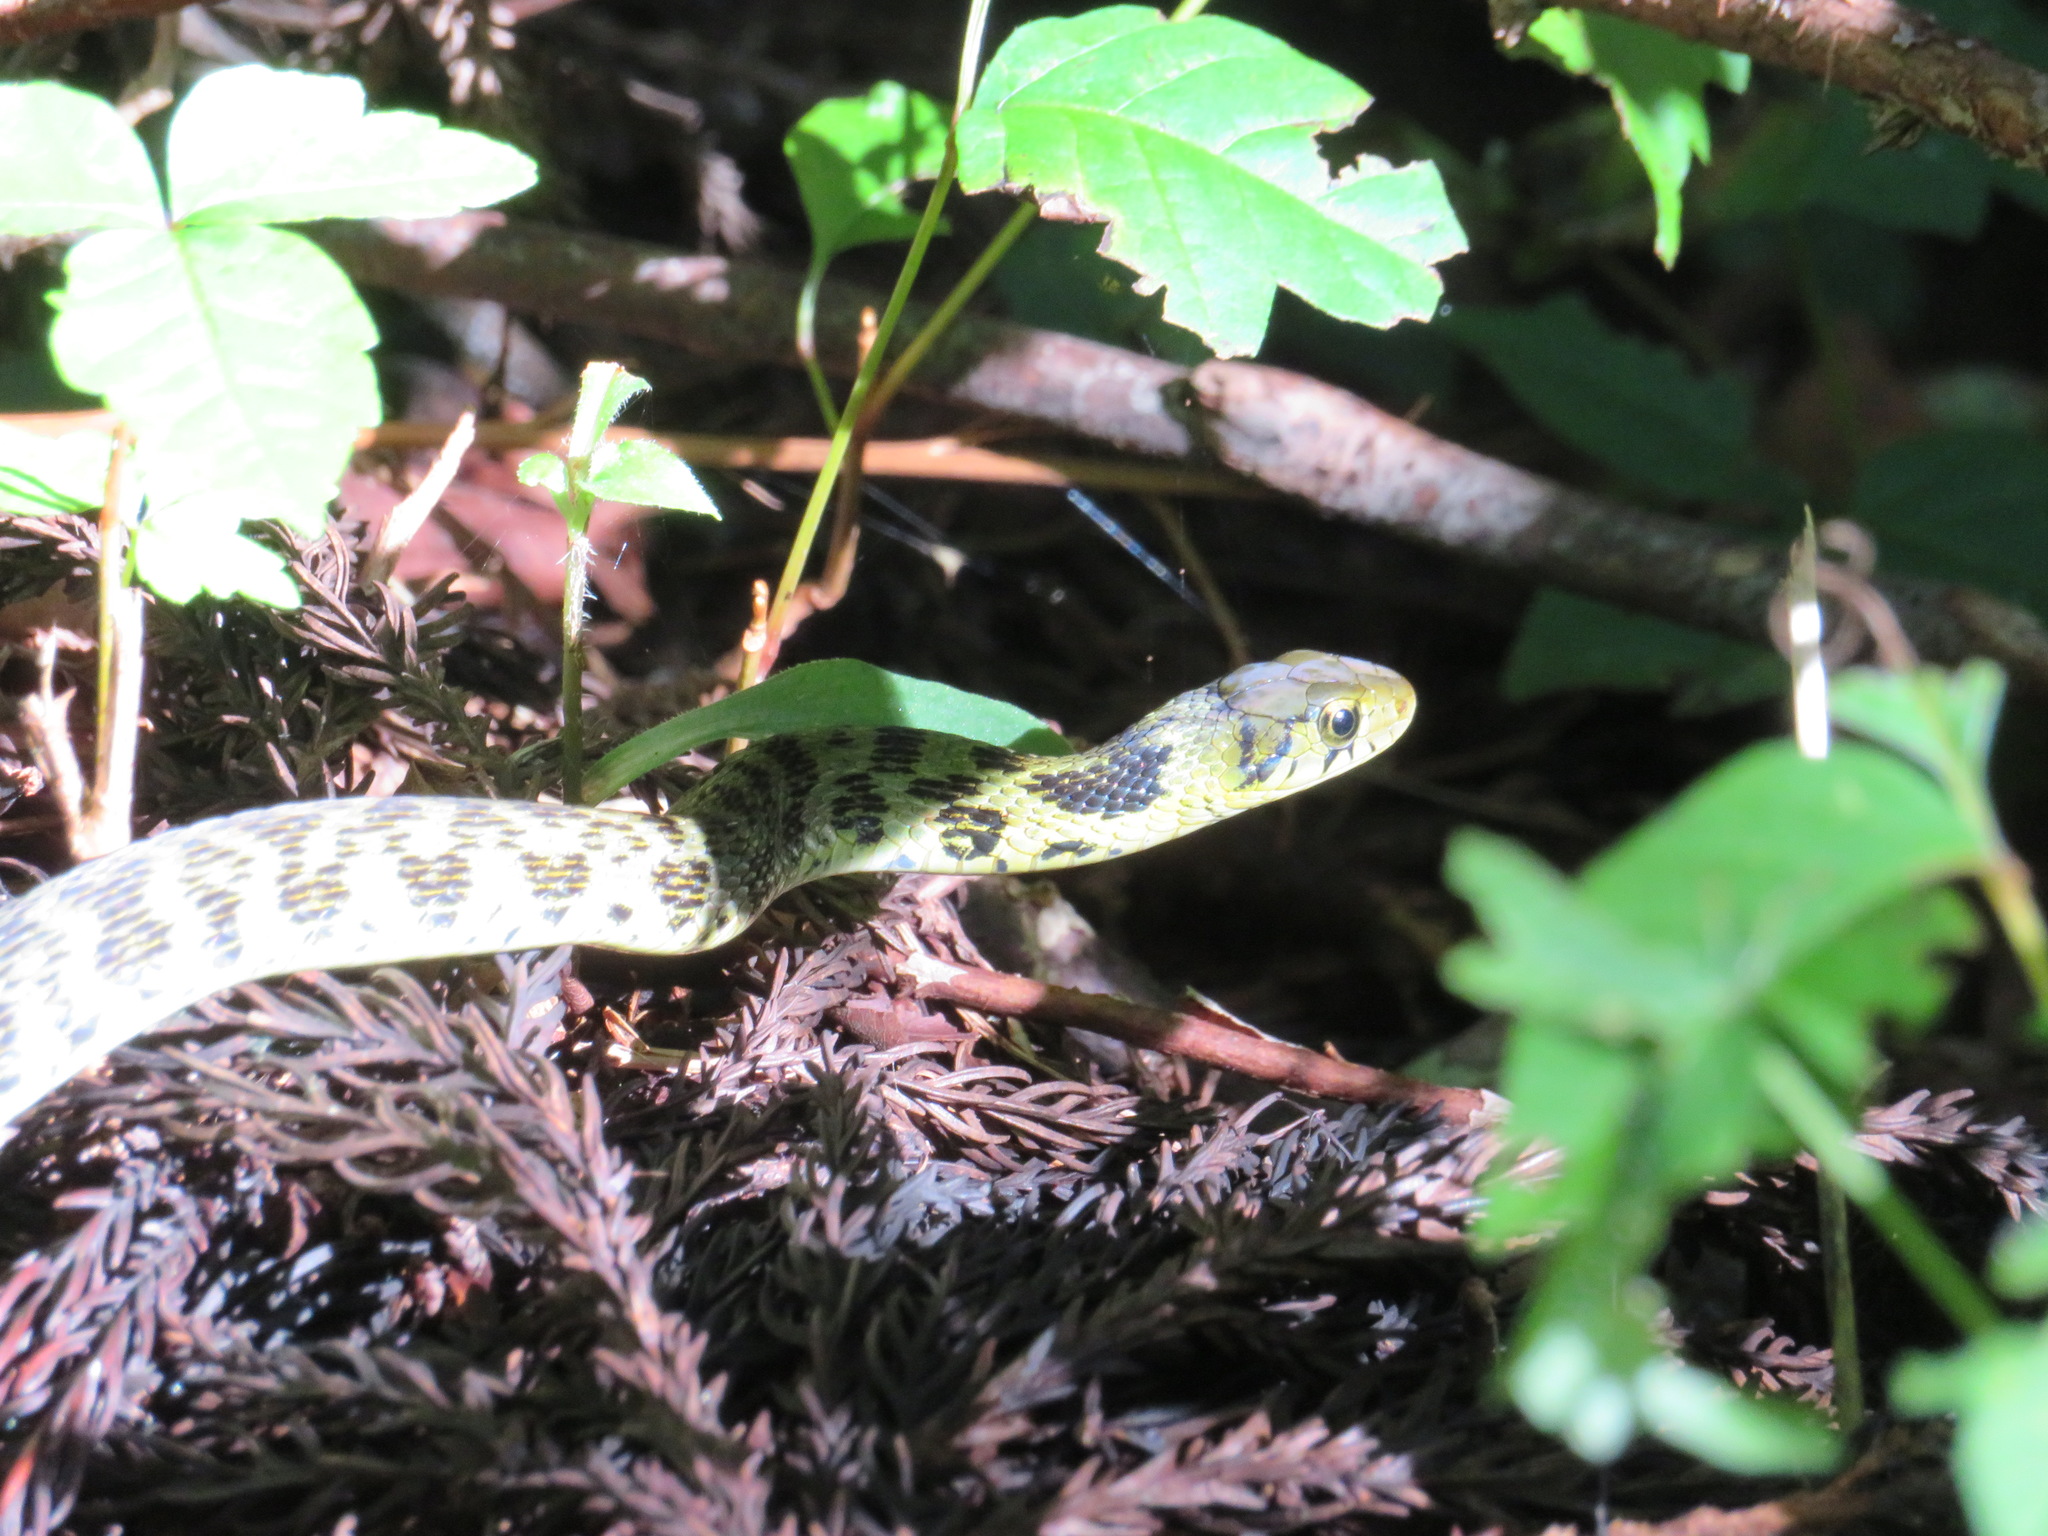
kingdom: Animalia
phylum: Chordata
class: Squamata
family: Colubridae
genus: Rhabdophis
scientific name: Rhabdophis tigrinus
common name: Tiger keelback
